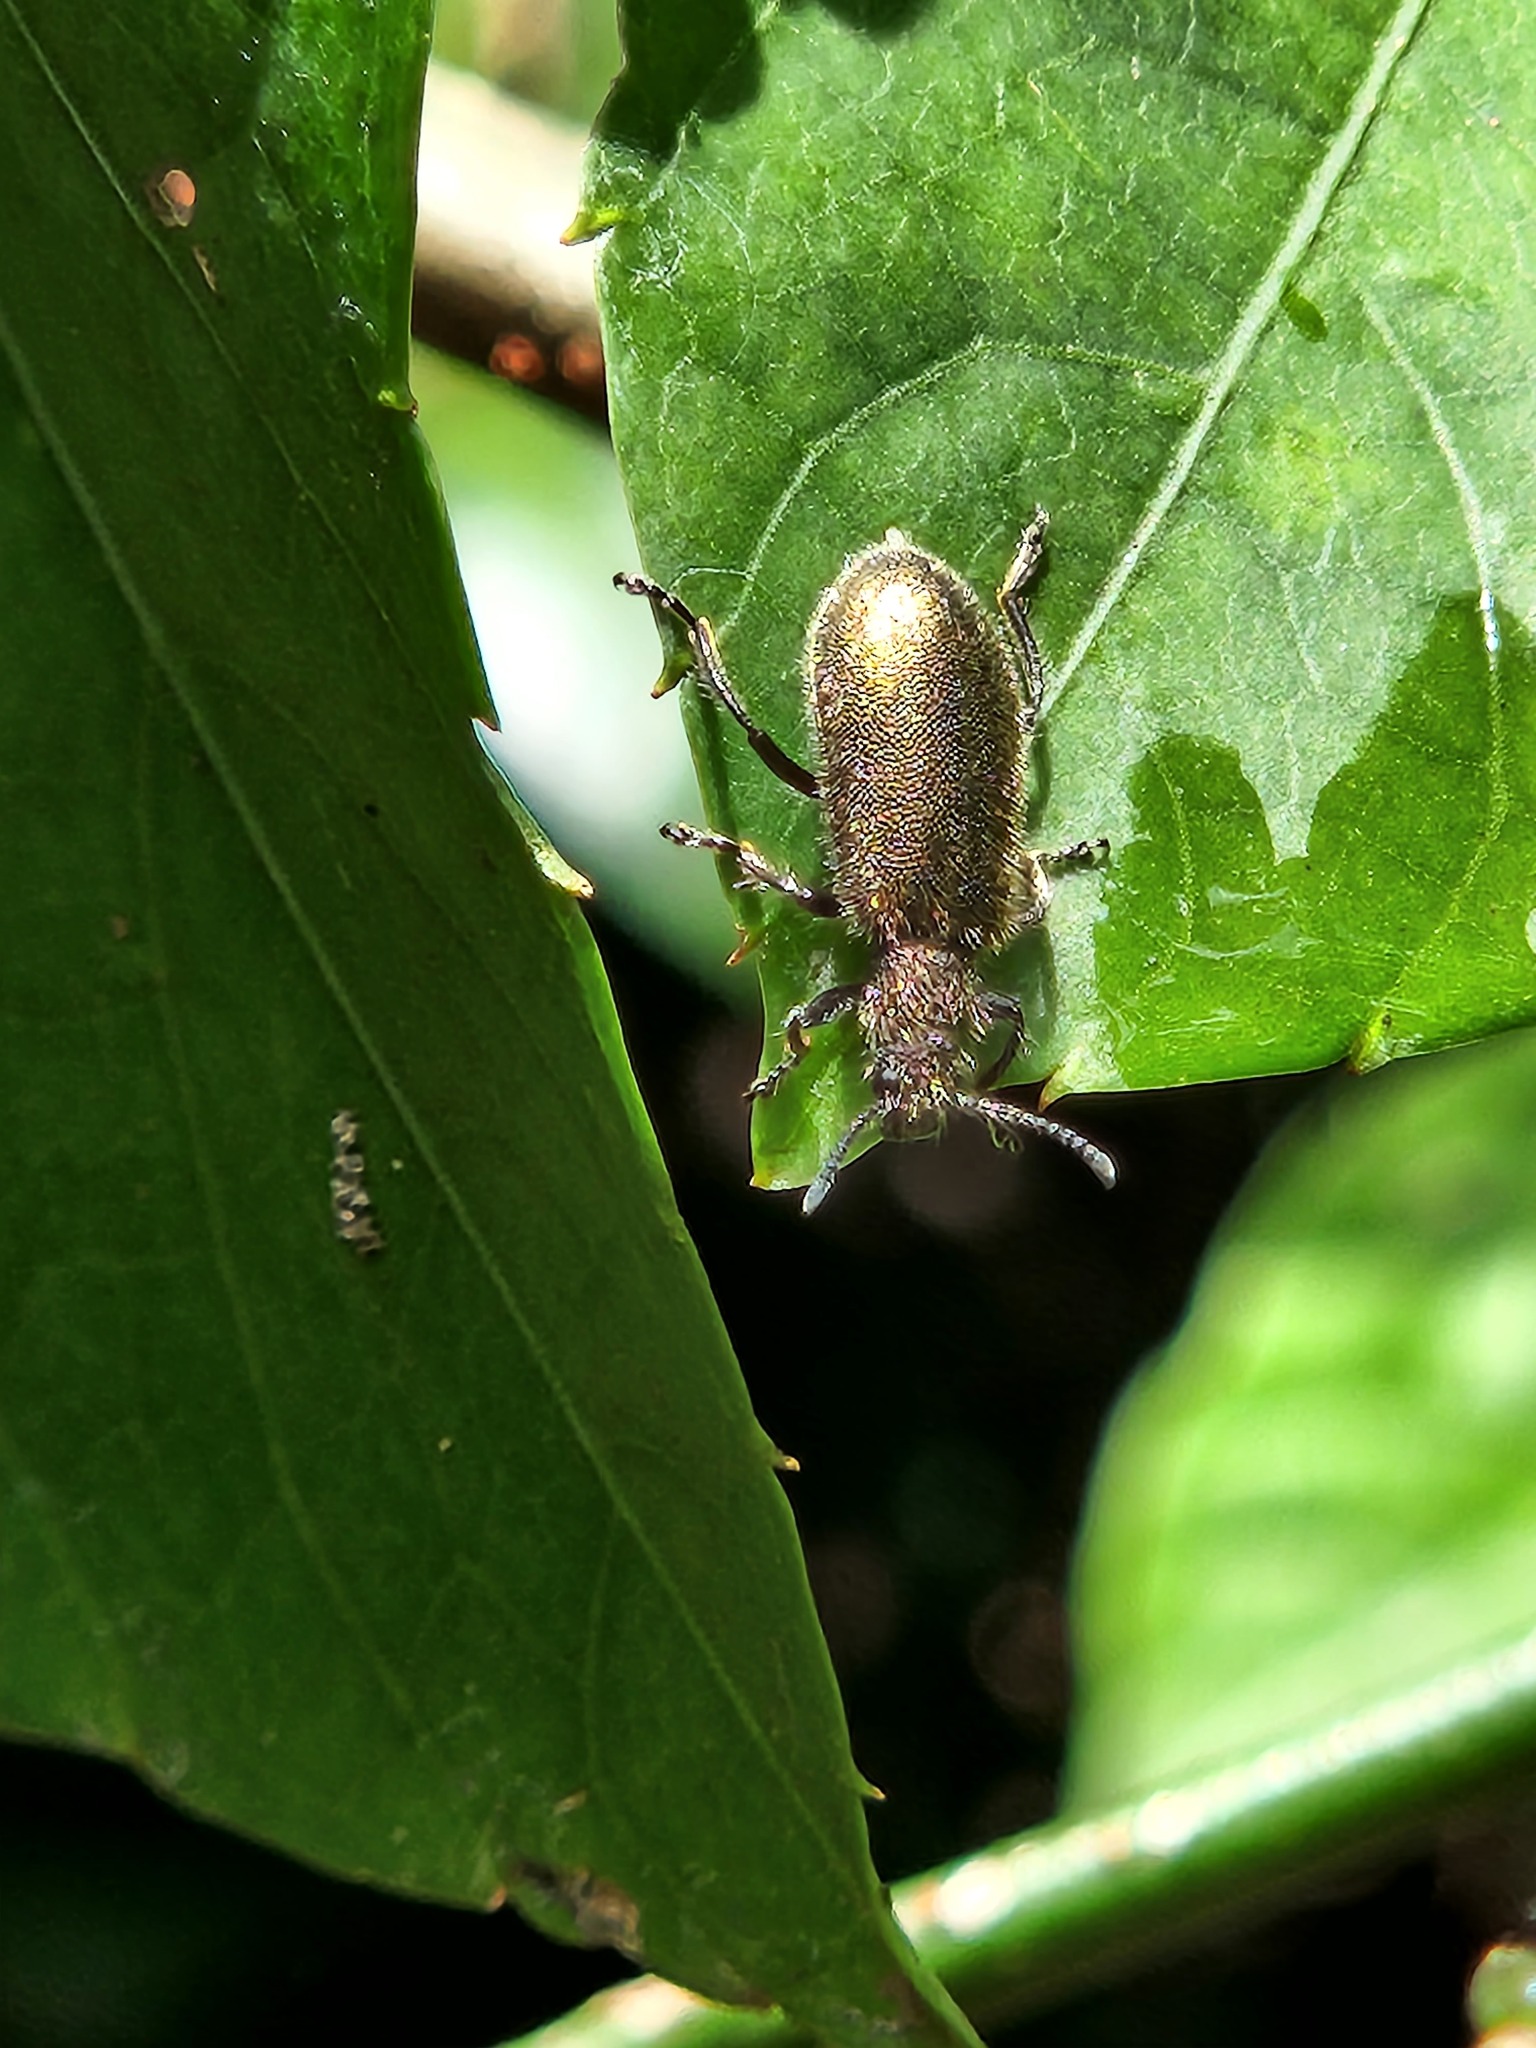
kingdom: Animalia
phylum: Arthropoda
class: Insecta
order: Coleoptera
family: Tenebrionidae
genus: Lagria
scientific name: Lagria villosa
